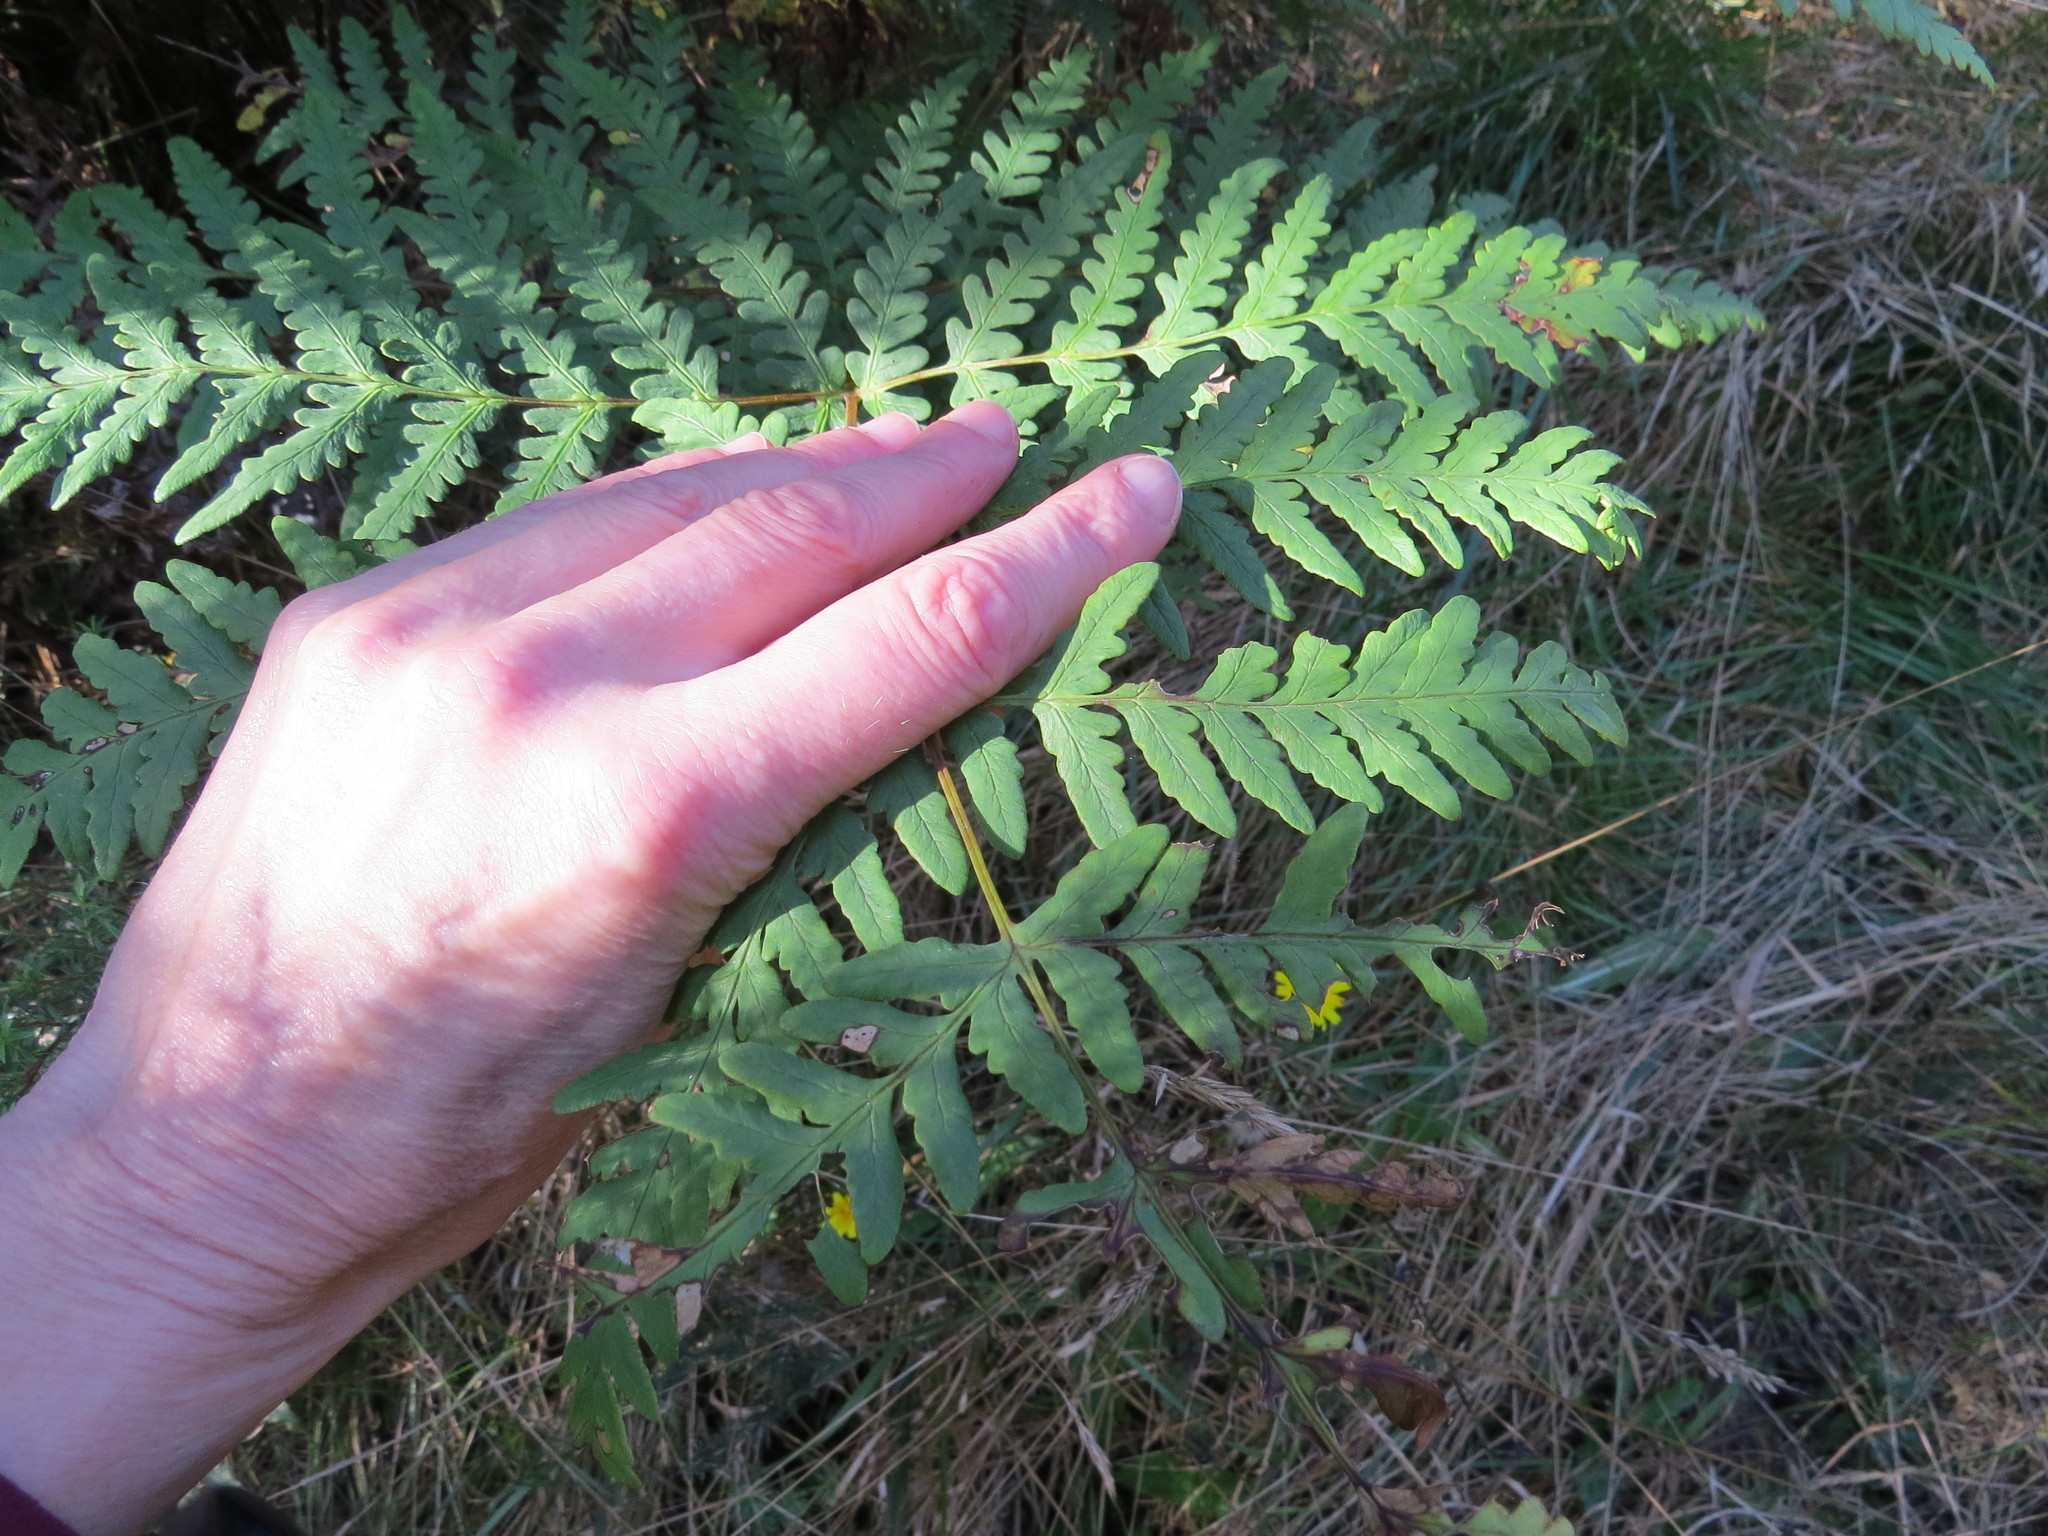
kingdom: Plantae
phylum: Tracheophyta
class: Polypodiopsida
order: Polypodiales
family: Dennstaedtiaceae
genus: Histiopteris
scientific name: Histiopteris incisa
